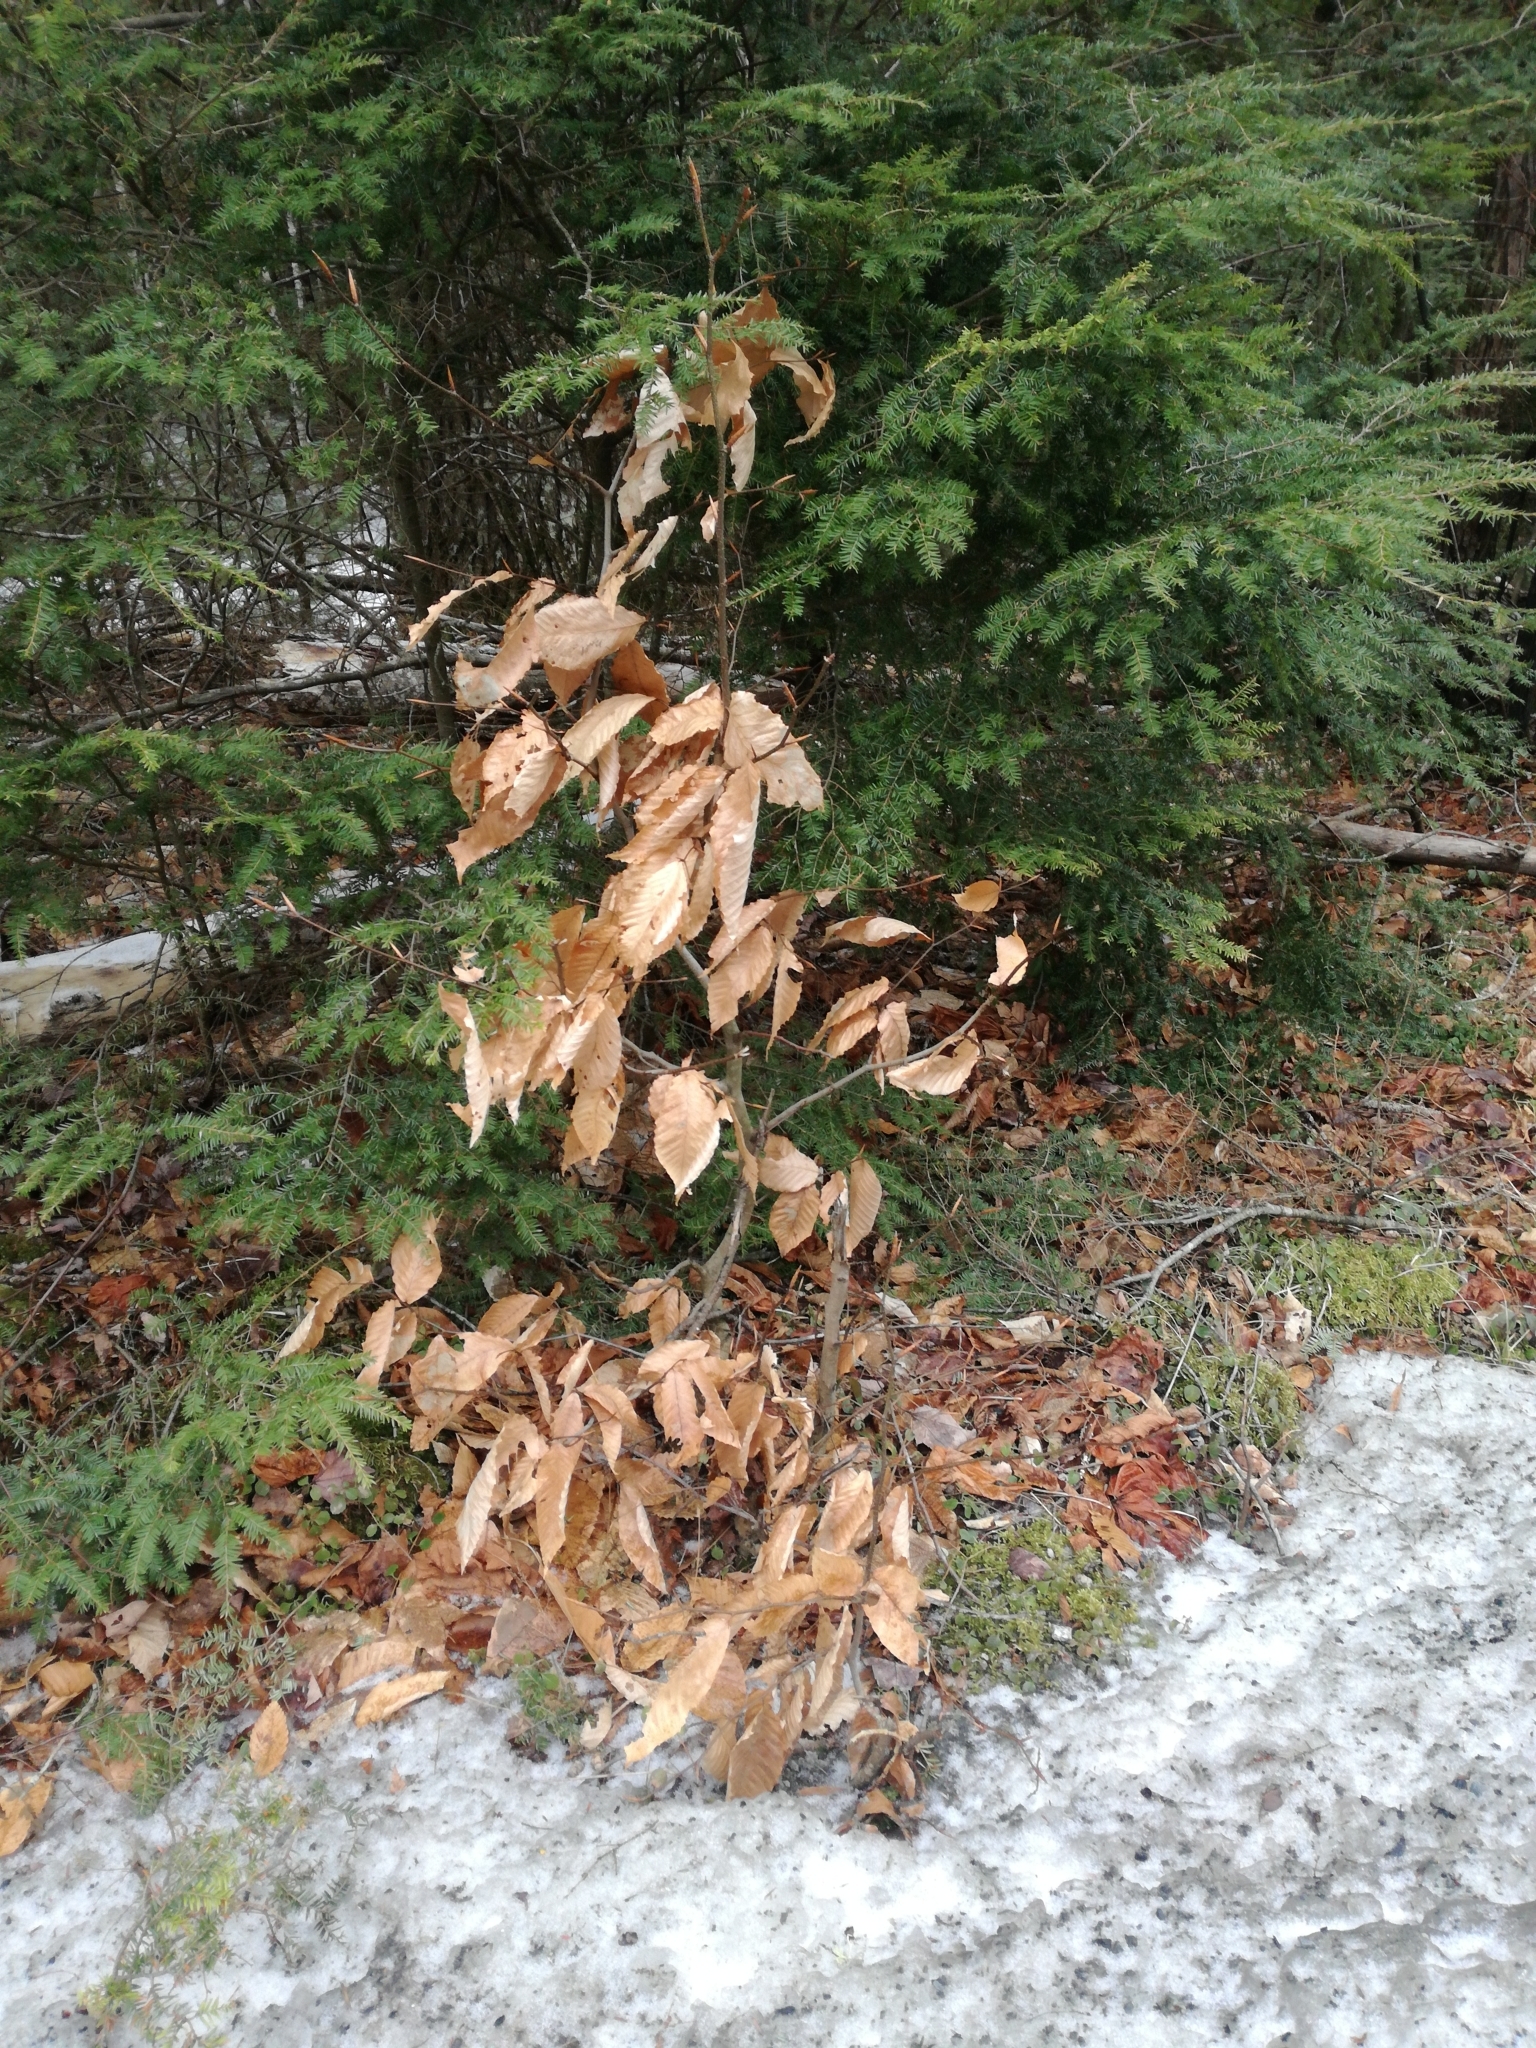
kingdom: Plantae
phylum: Tracheophyta
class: Magnoliopsida
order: Fagales
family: Fagaceae
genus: Fagus
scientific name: Fagus grandifolia
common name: American beech
